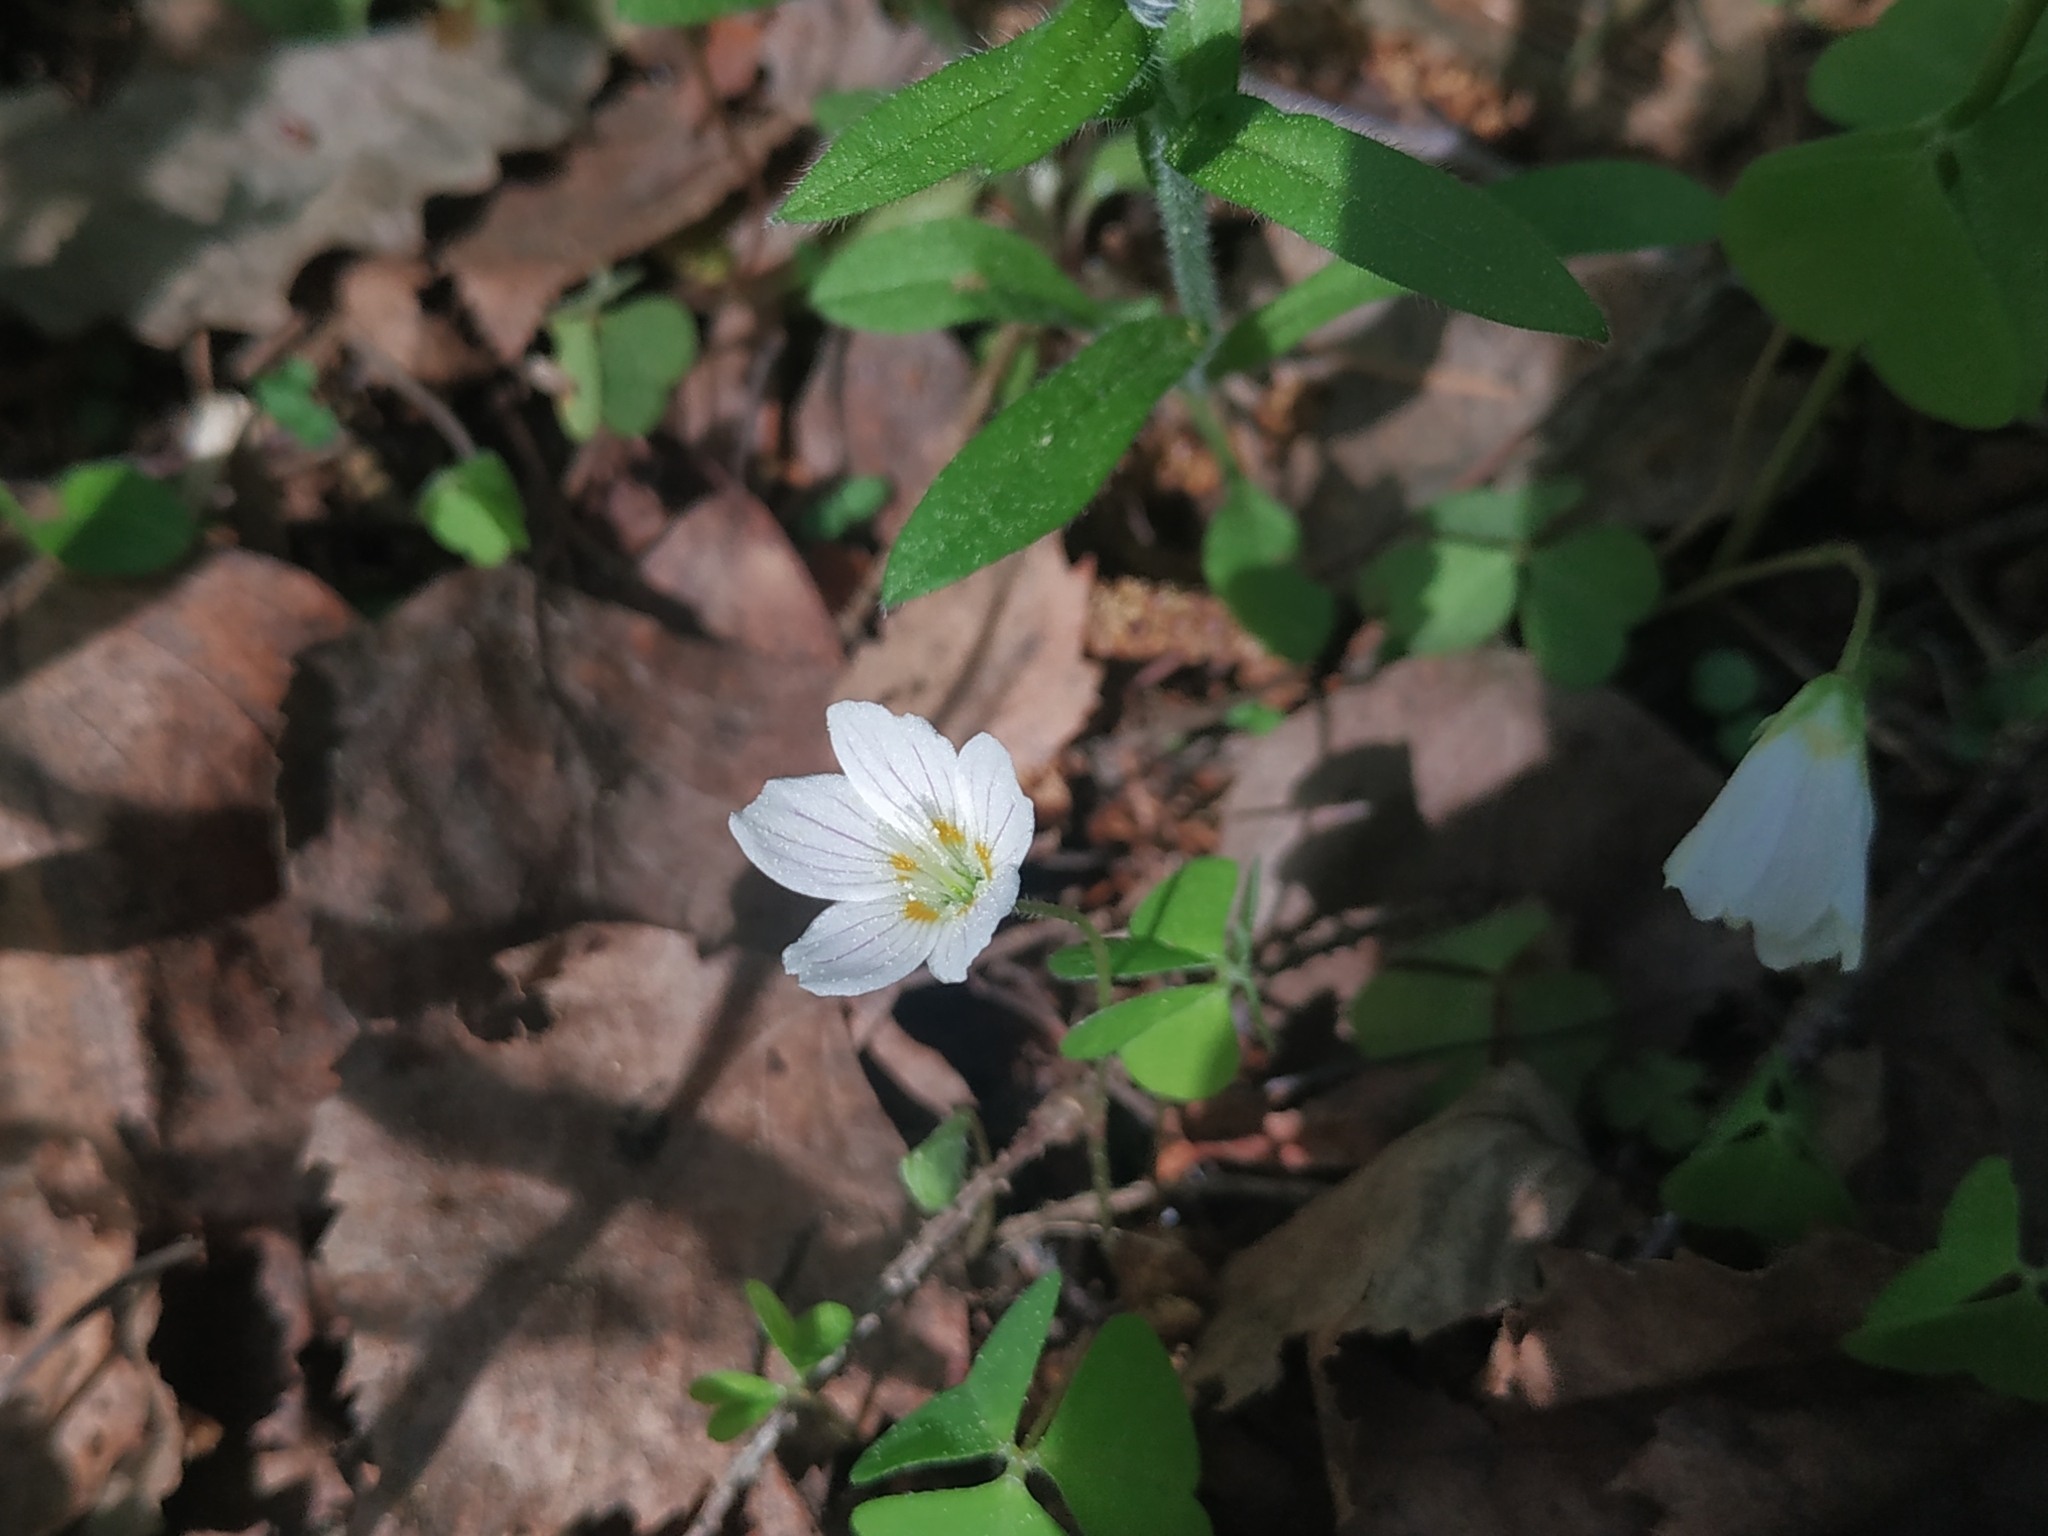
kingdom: Plantae
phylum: Tracheophyta
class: Magnoliopsida
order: Oxalidales
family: Oxalidaceae
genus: Oxalis
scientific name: Oxalis acetosella
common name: Wood-sorrel
